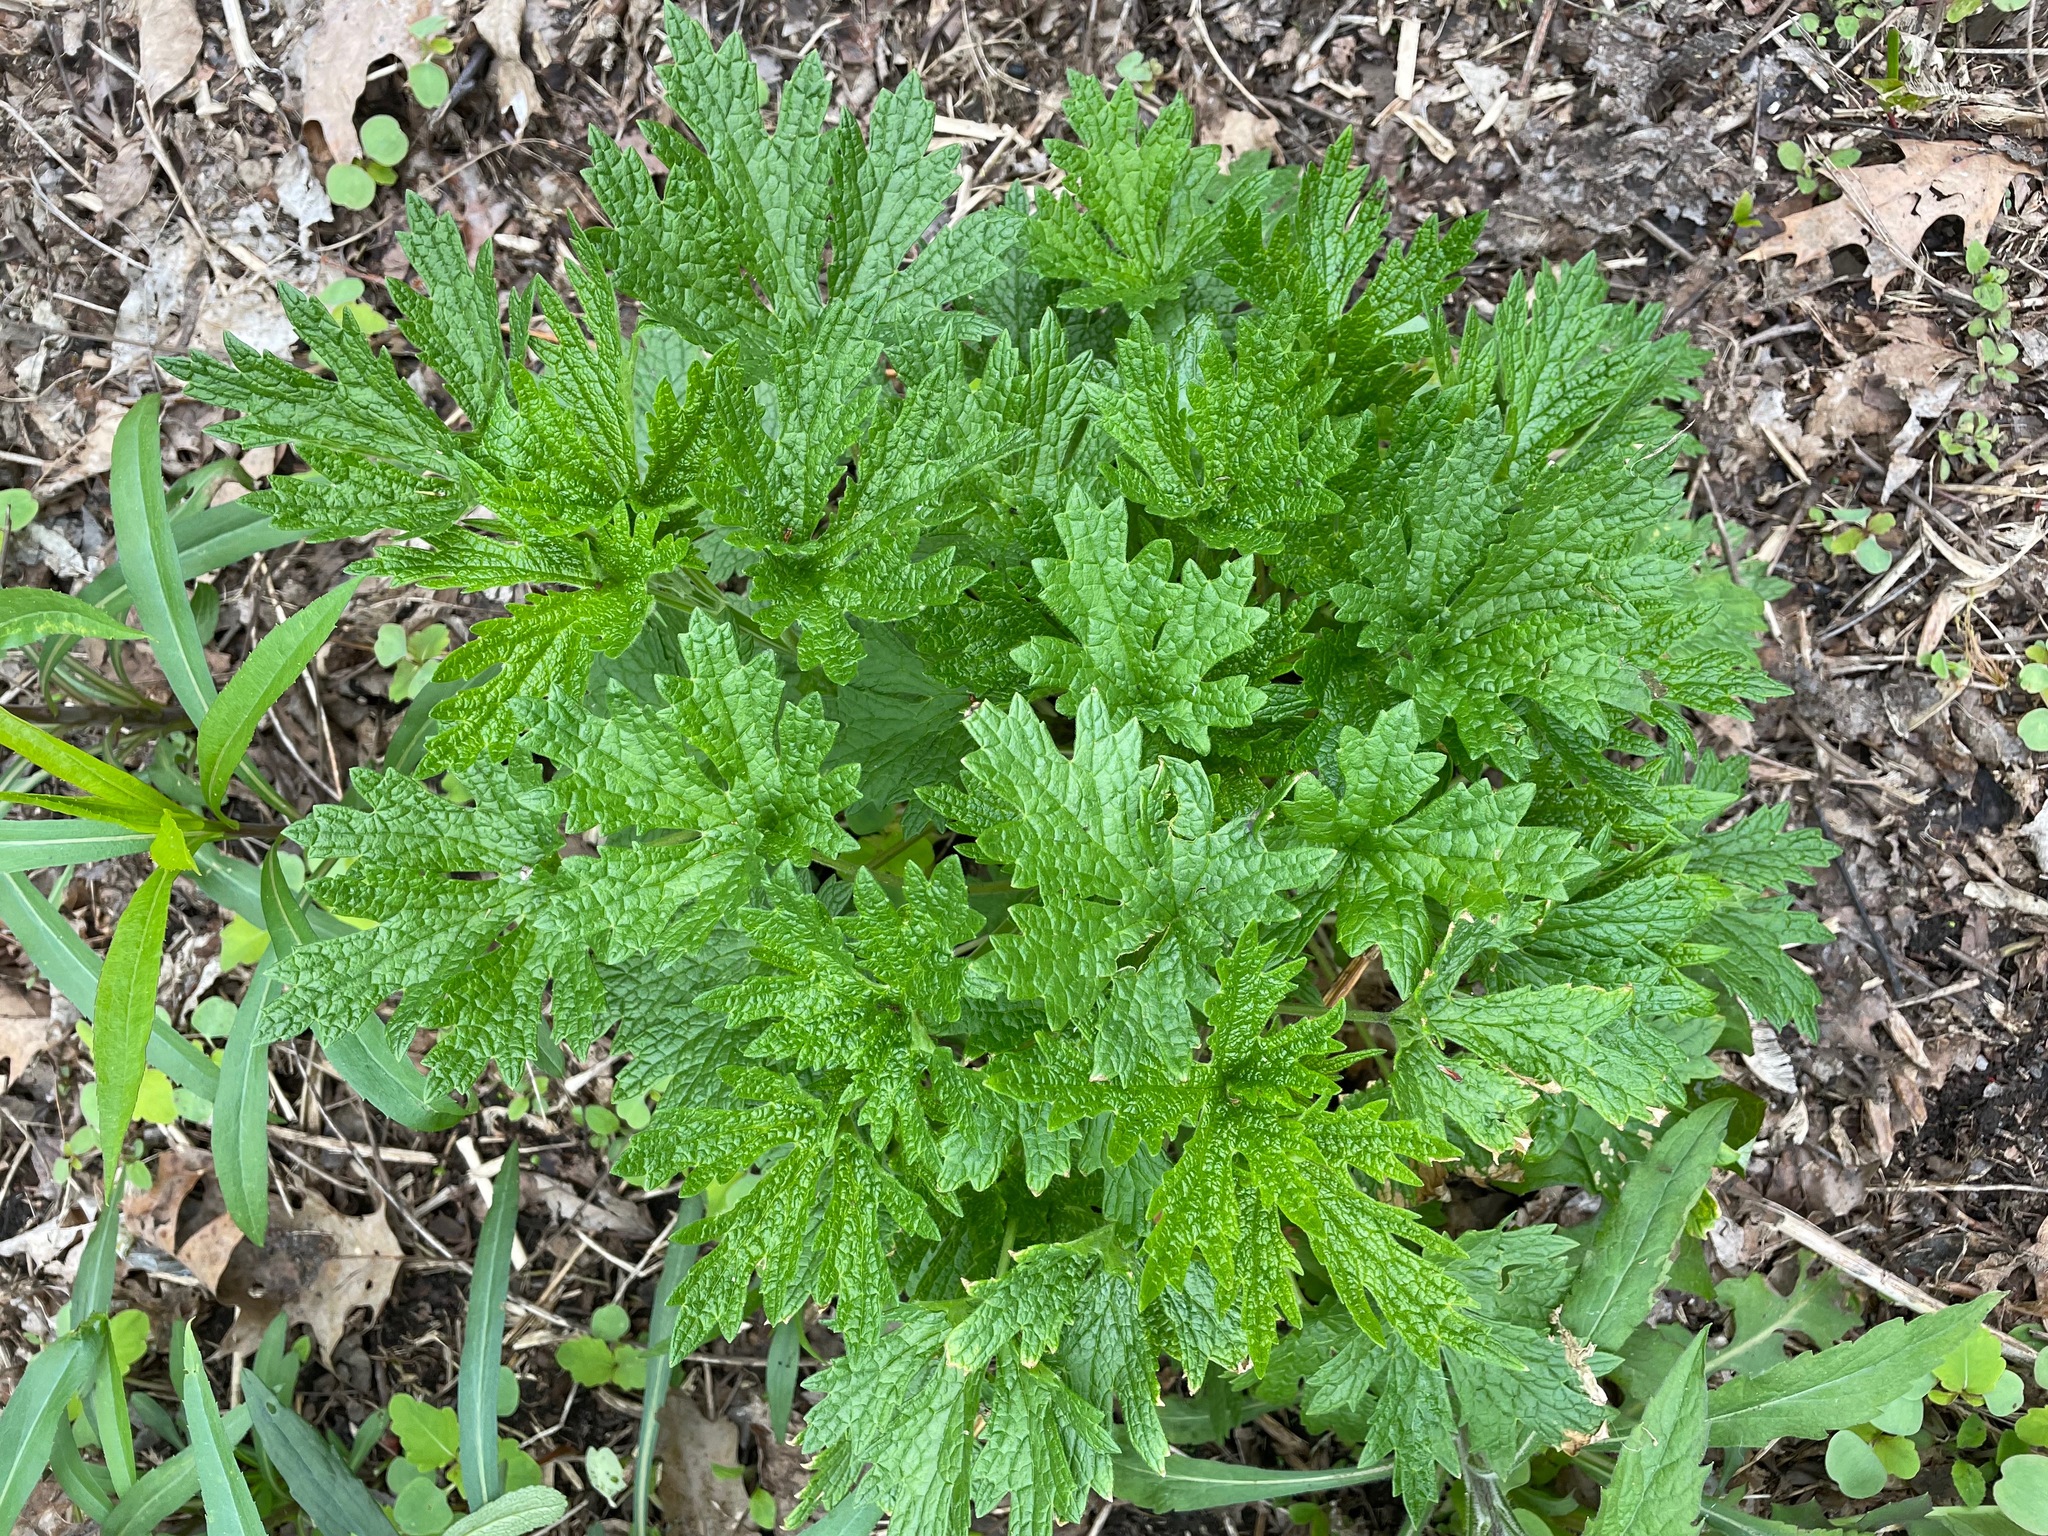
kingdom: Plantae
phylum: Tracheophyta
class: Magnoliopsida
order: Lamiales
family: Lamiaceae
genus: Leonurus
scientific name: Leonurus cardiaca
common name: Motherwort
